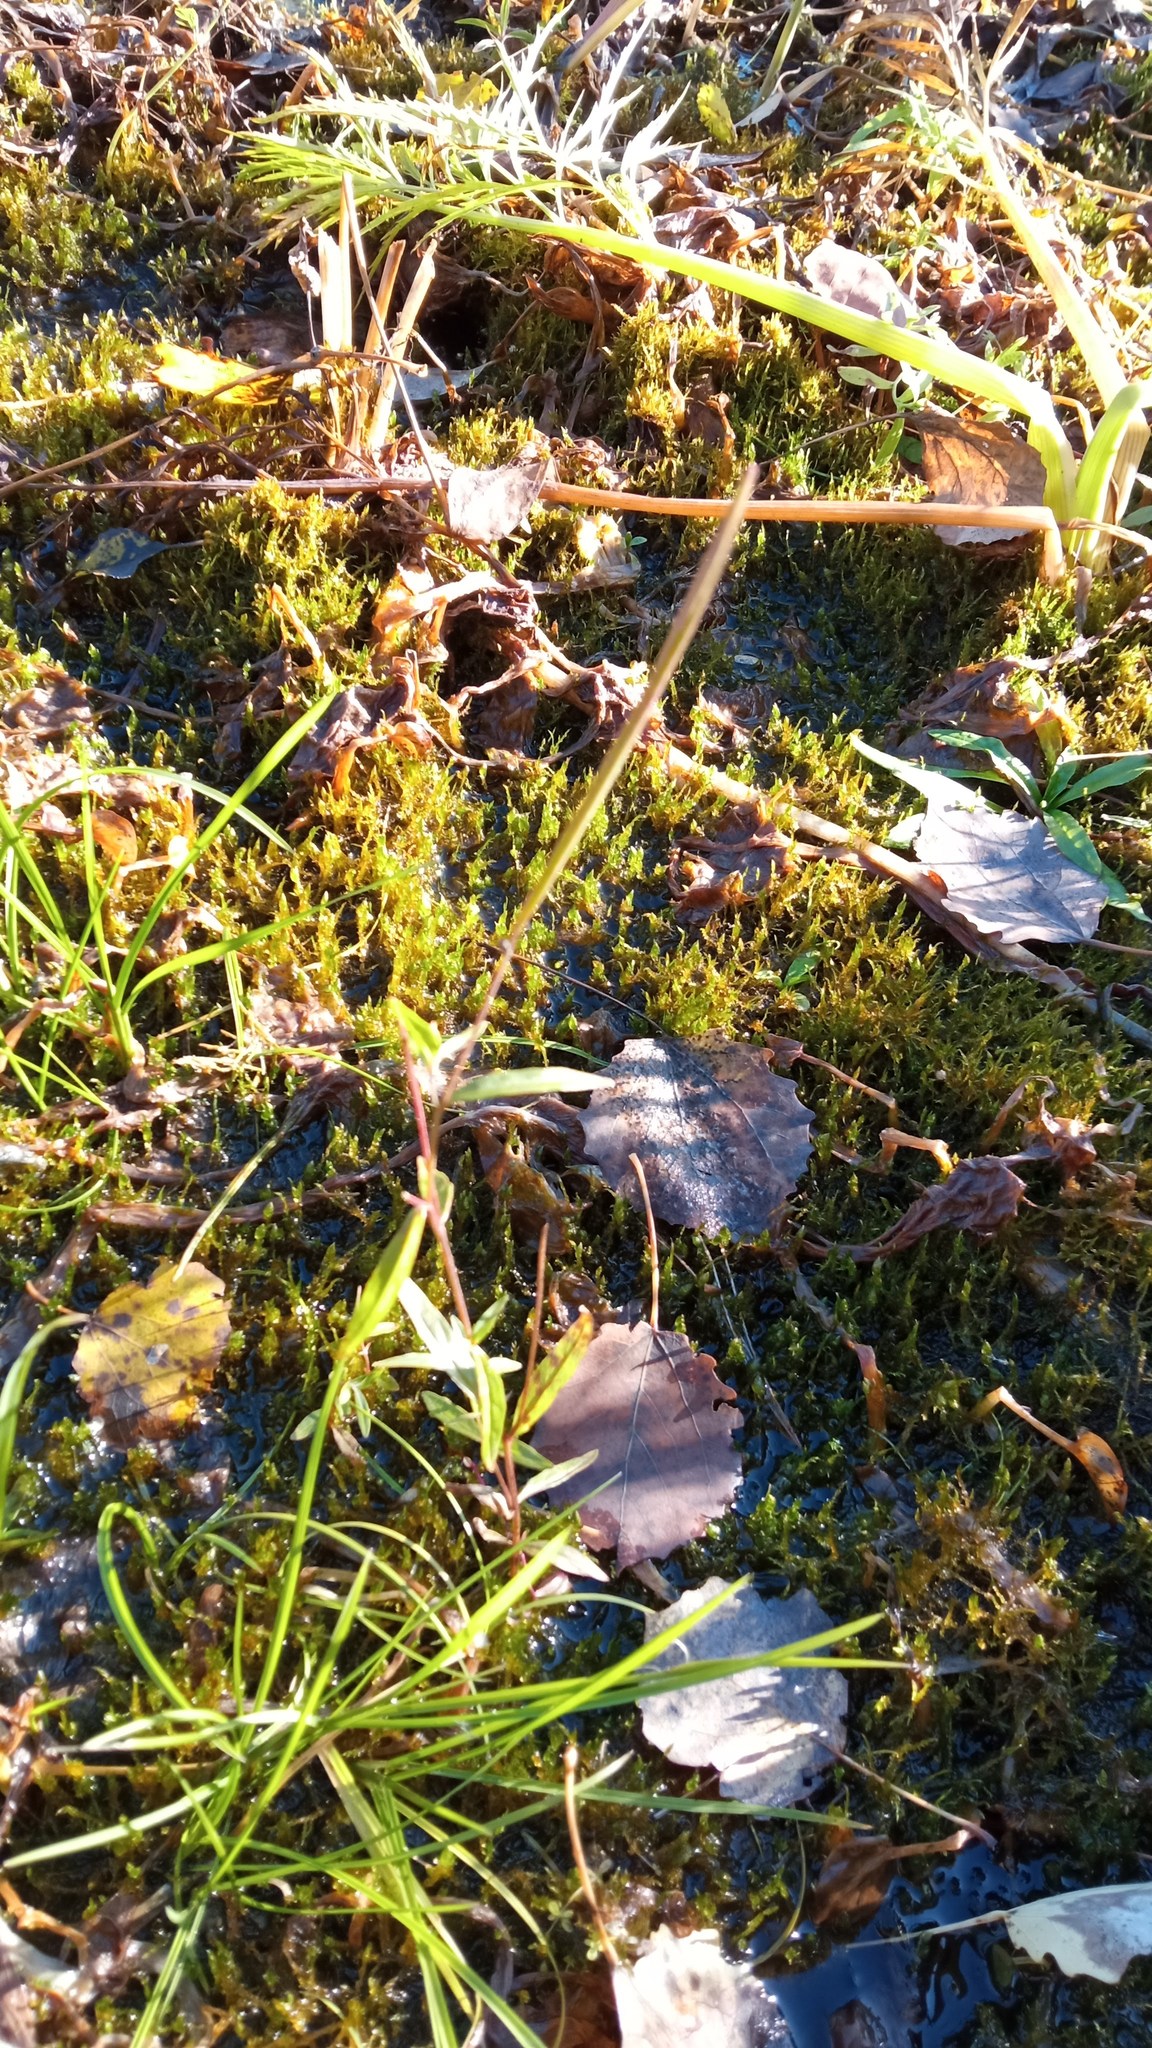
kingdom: Plantae
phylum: Tracheophyta
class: Magnoliopsida
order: Myrtales
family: Onagraceae
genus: Epilobium
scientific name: Epilobium palustre
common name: Marsh willowherb
